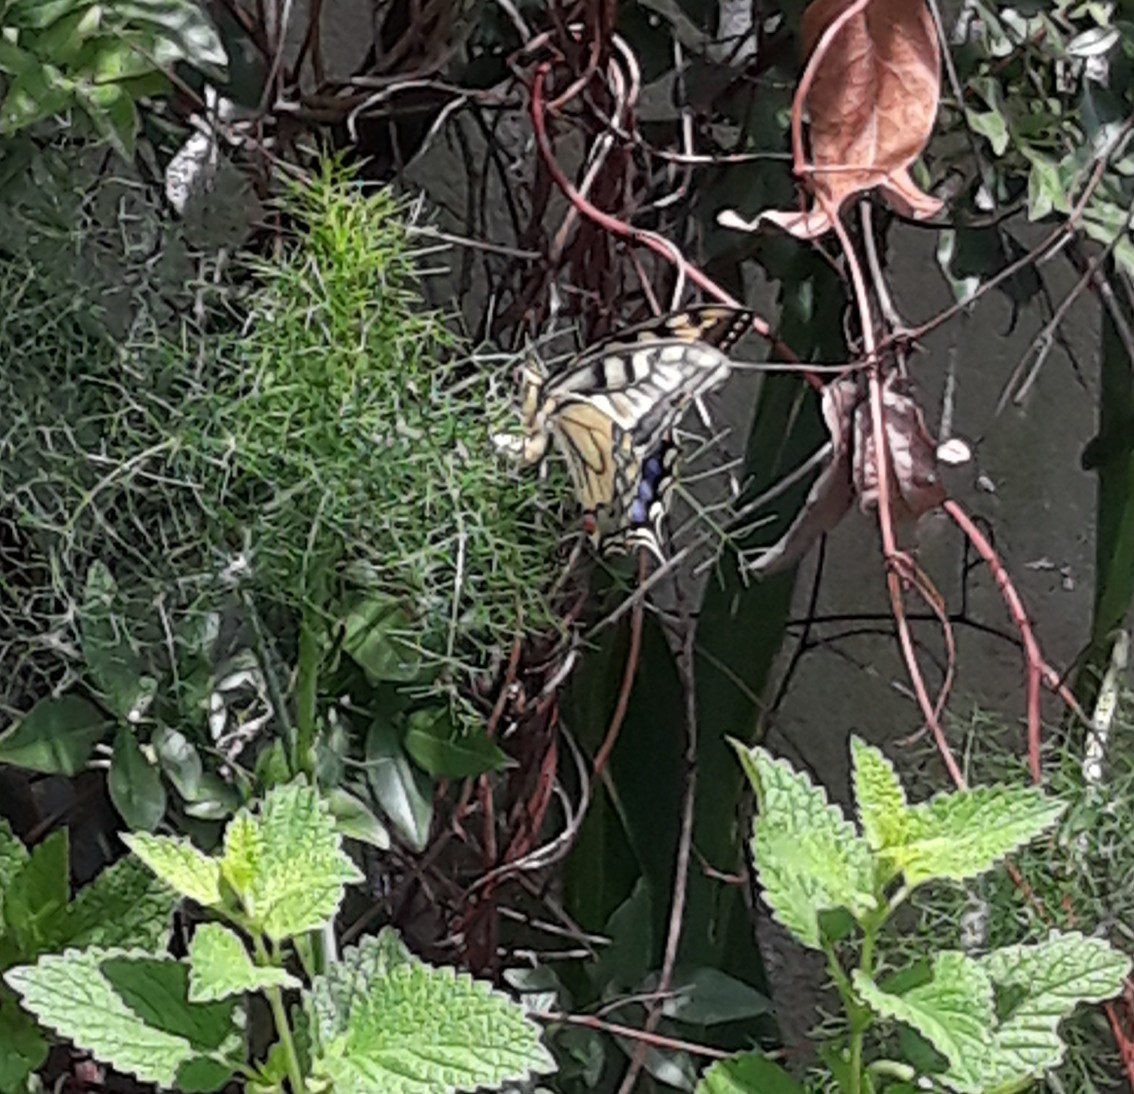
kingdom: Animalia
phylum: Arthropoda
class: Insecta
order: Lepidoptera
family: Papilionidae
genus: Papilio
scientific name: Papilio machaon
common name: Swallowtail
